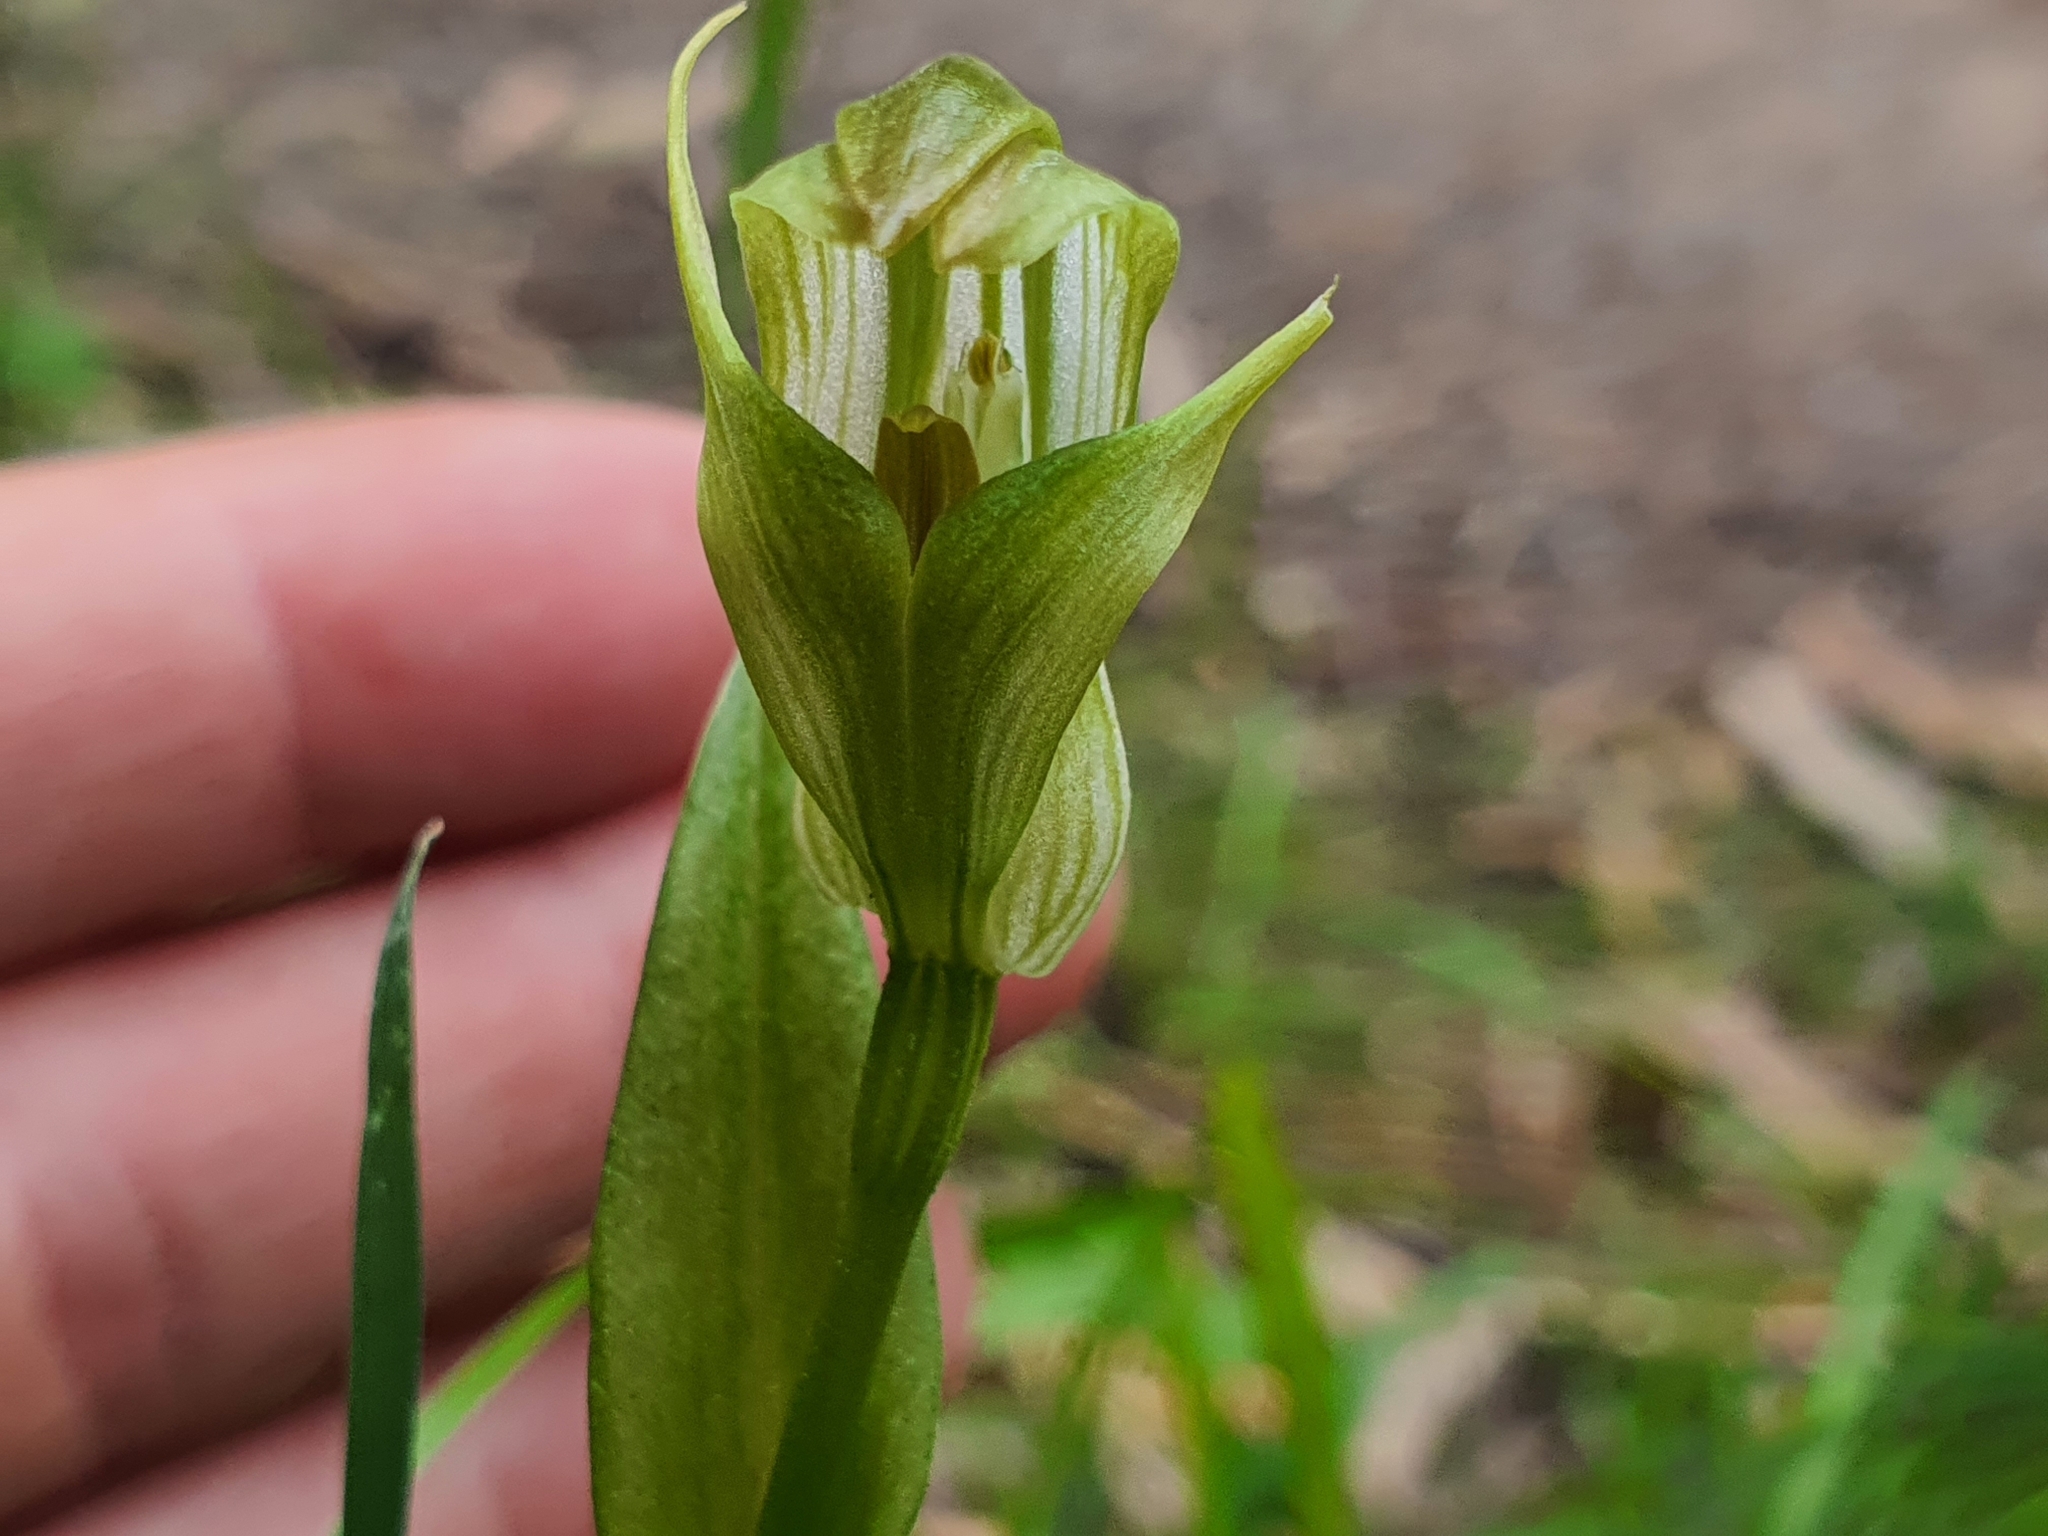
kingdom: Plantae
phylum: Tracheophyta
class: Liliopsida
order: Asparagales
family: Orchidaceae
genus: Pterostylis
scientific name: Pterostylis alpina
